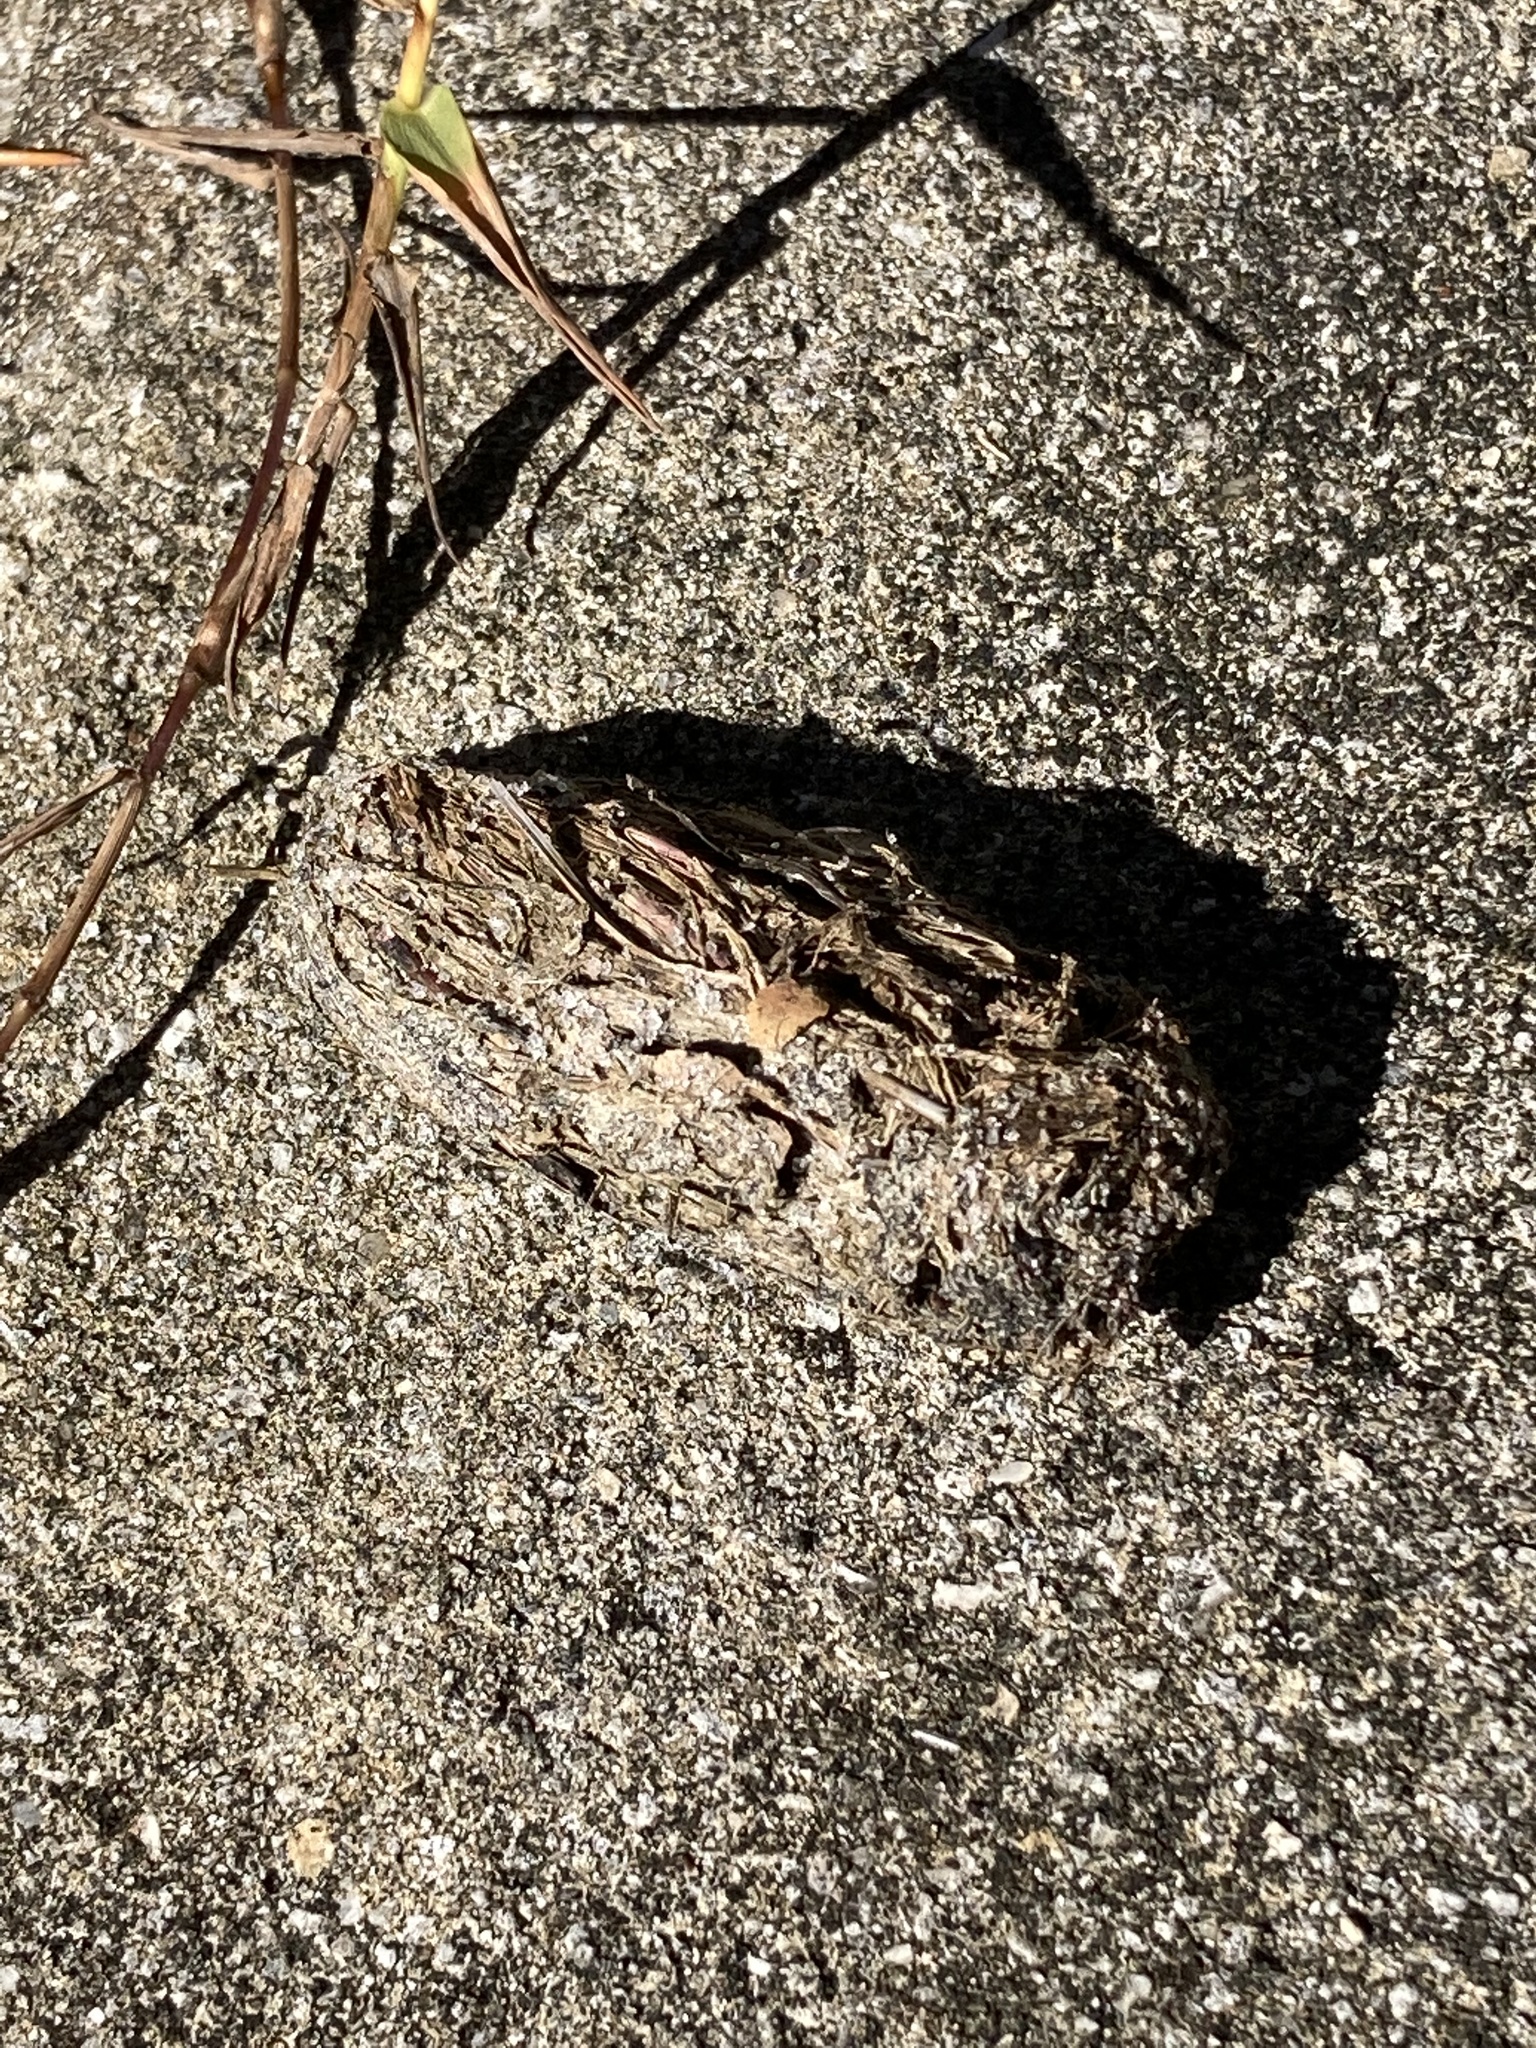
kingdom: Animalia
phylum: Chordata
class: Testudines
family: Testudinidae
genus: Gopherus
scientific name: Gopherus polyphemus
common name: Florida gopher tortoise
